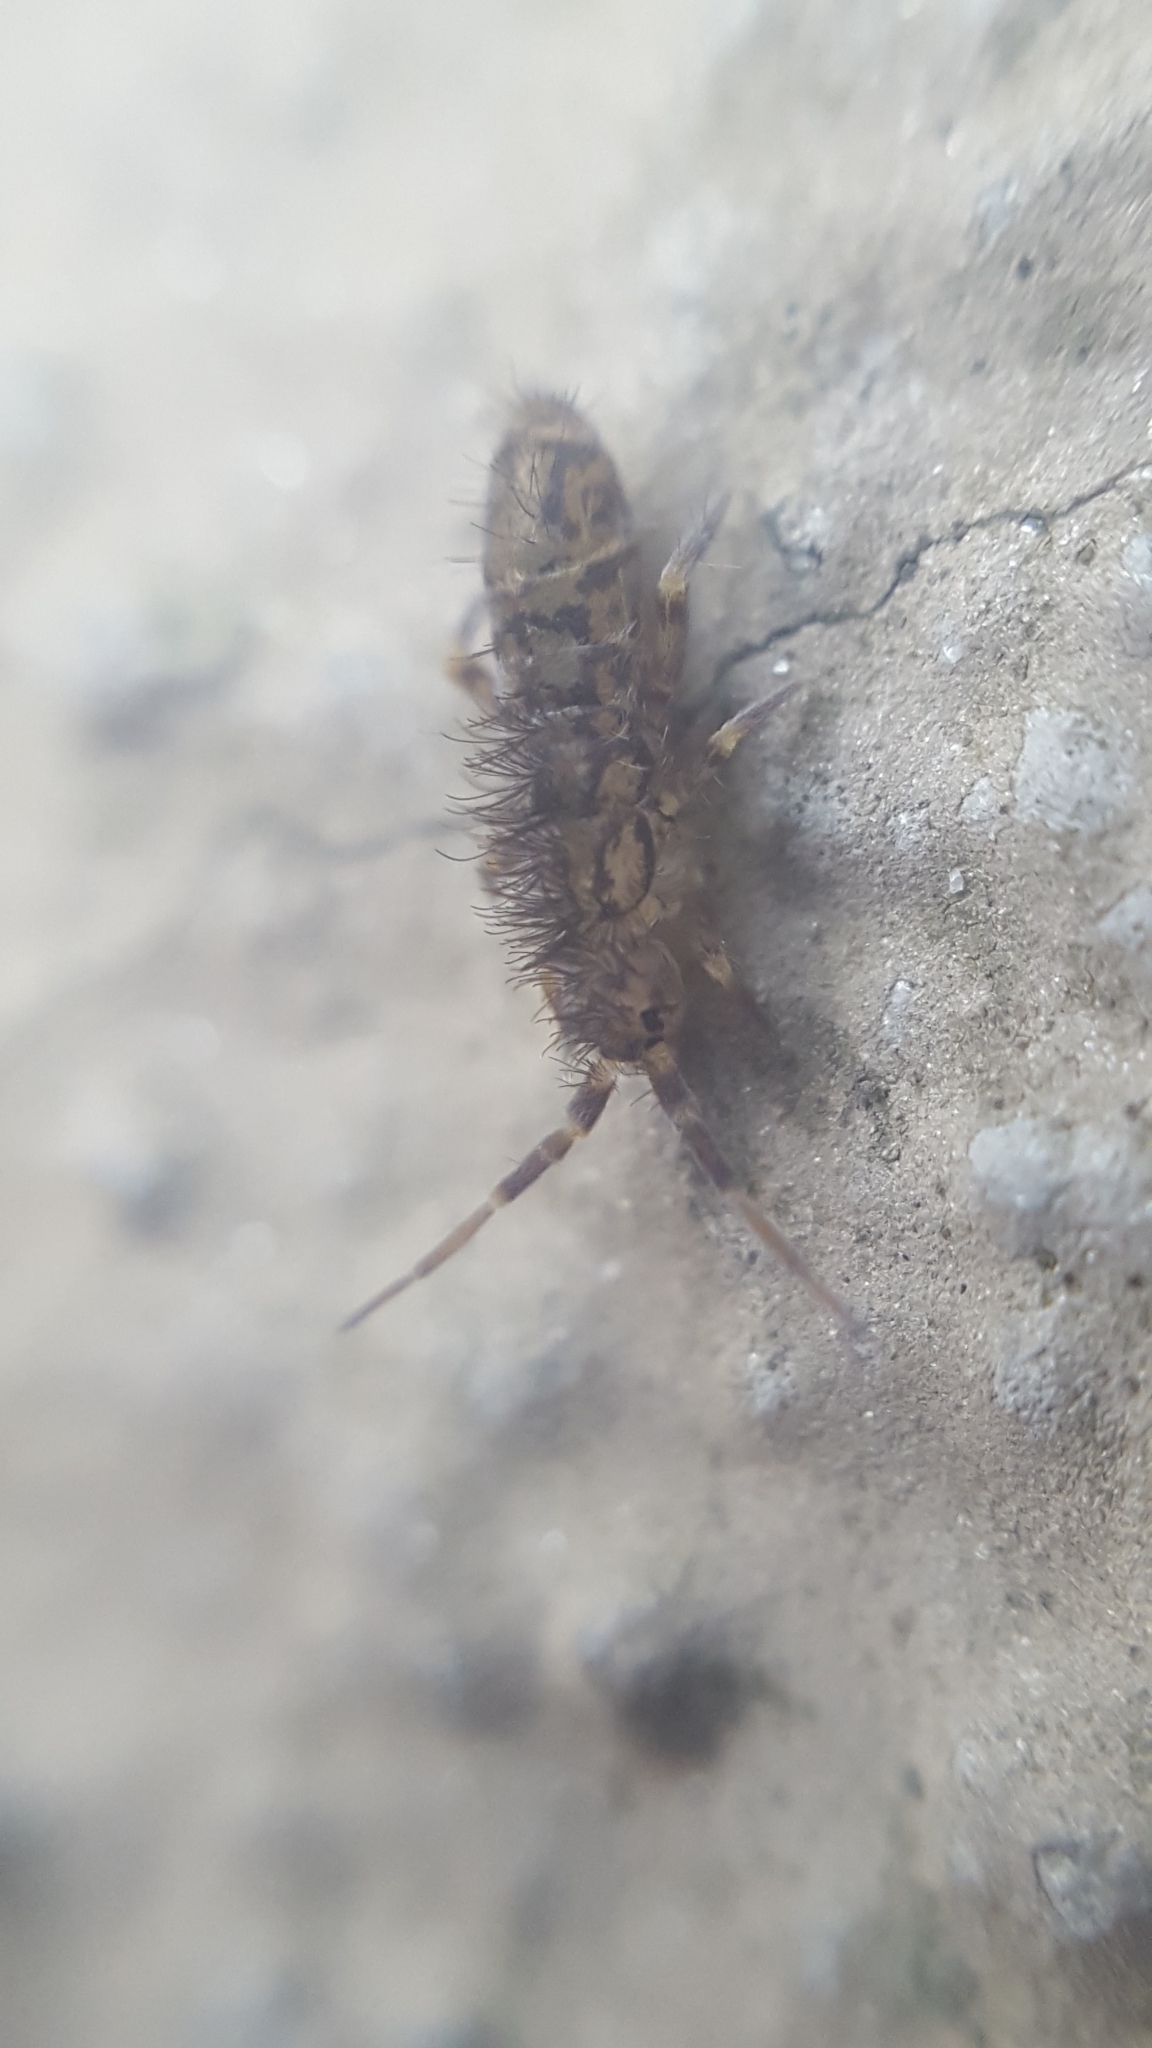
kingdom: Animalia
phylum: Arthropoda
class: Collembola
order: Entomobryomorpha
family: Orchesellidae
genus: Orchesella
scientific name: Orchesella villosa
